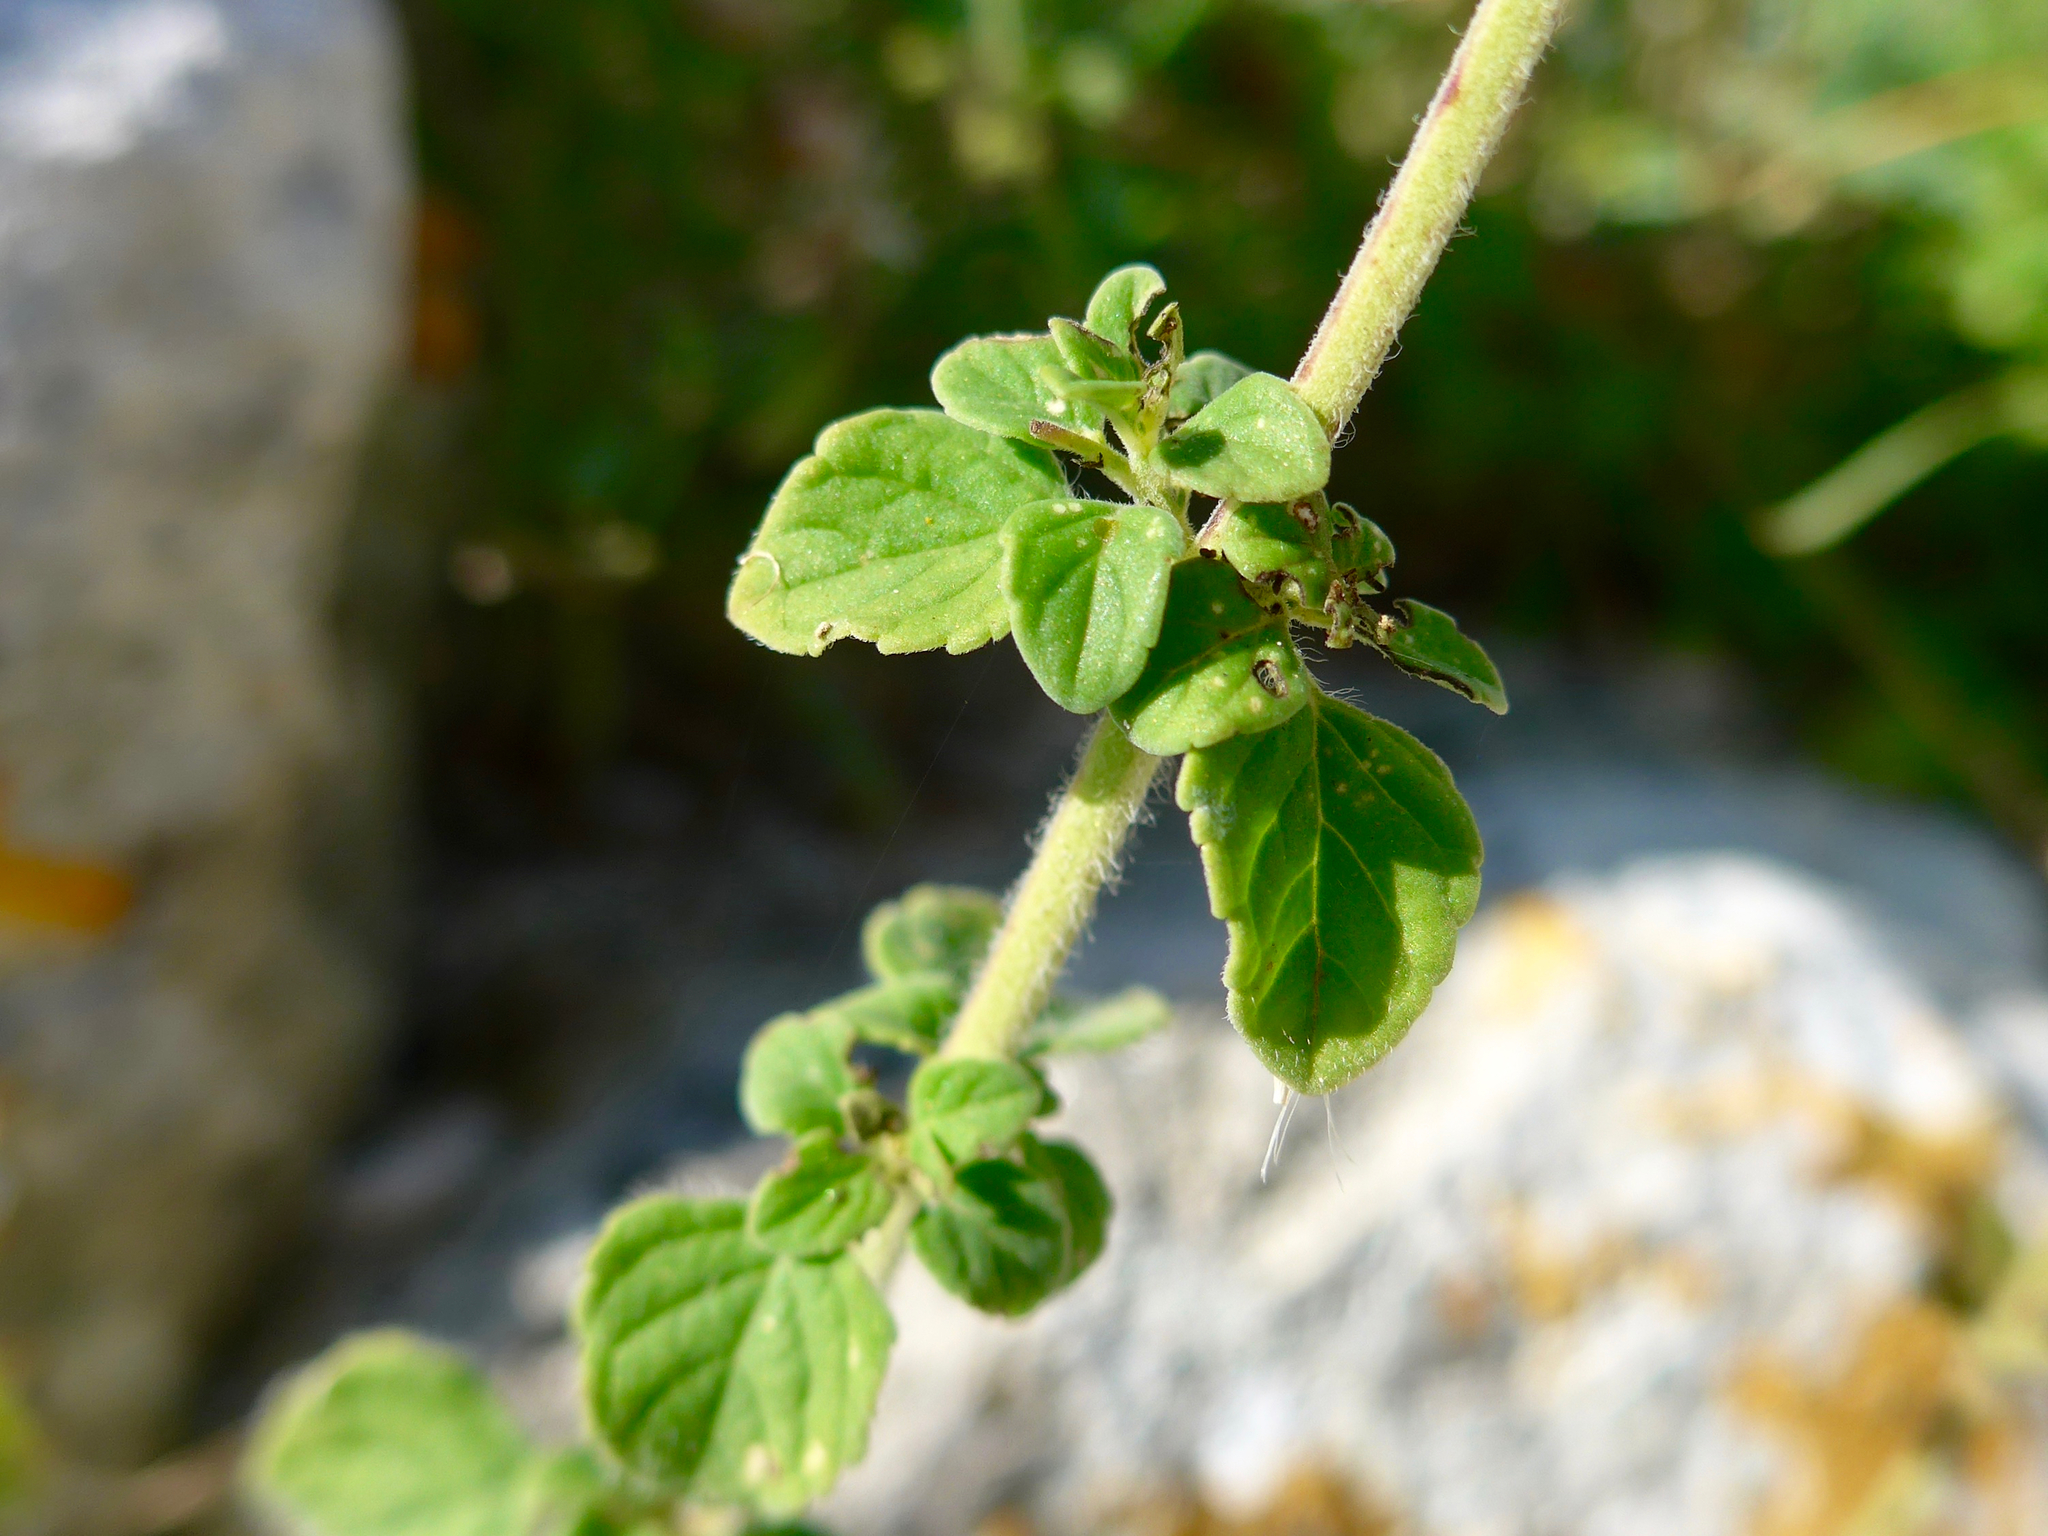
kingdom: Plantae
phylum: Tracheophyta
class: Magnoliopsida
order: Lamiales
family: Lamiaceae
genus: Clinopodium
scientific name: Clinopodium nepeta
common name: Lesser calamint
